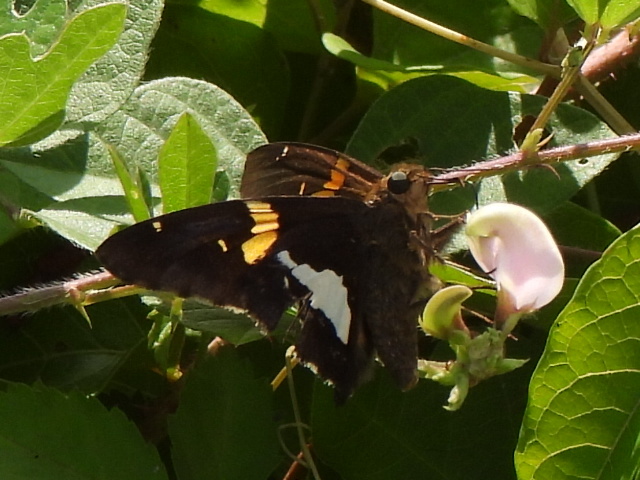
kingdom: Animalia
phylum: Arthropoda
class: Insecta
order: Lepidoptera
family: Hesperiidae
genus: Epargyreus
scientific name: Epargyreus clarus
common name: Silver-spotted skipper
